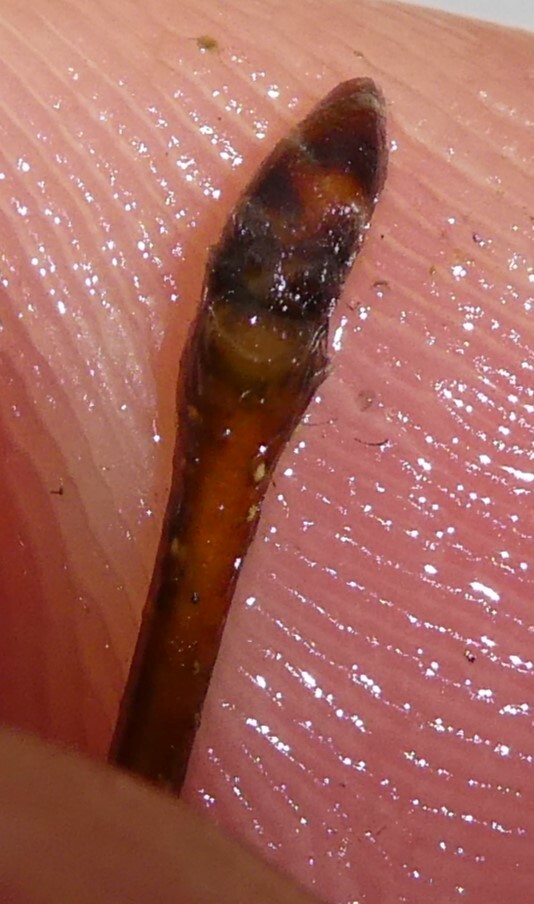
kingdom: Plantae
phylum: Tracheophyta
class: Magnoliopsida
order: Fagales
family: Betulaceae
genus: Carpinus
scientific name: Carpinus caroliniana
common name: American hornbeam
